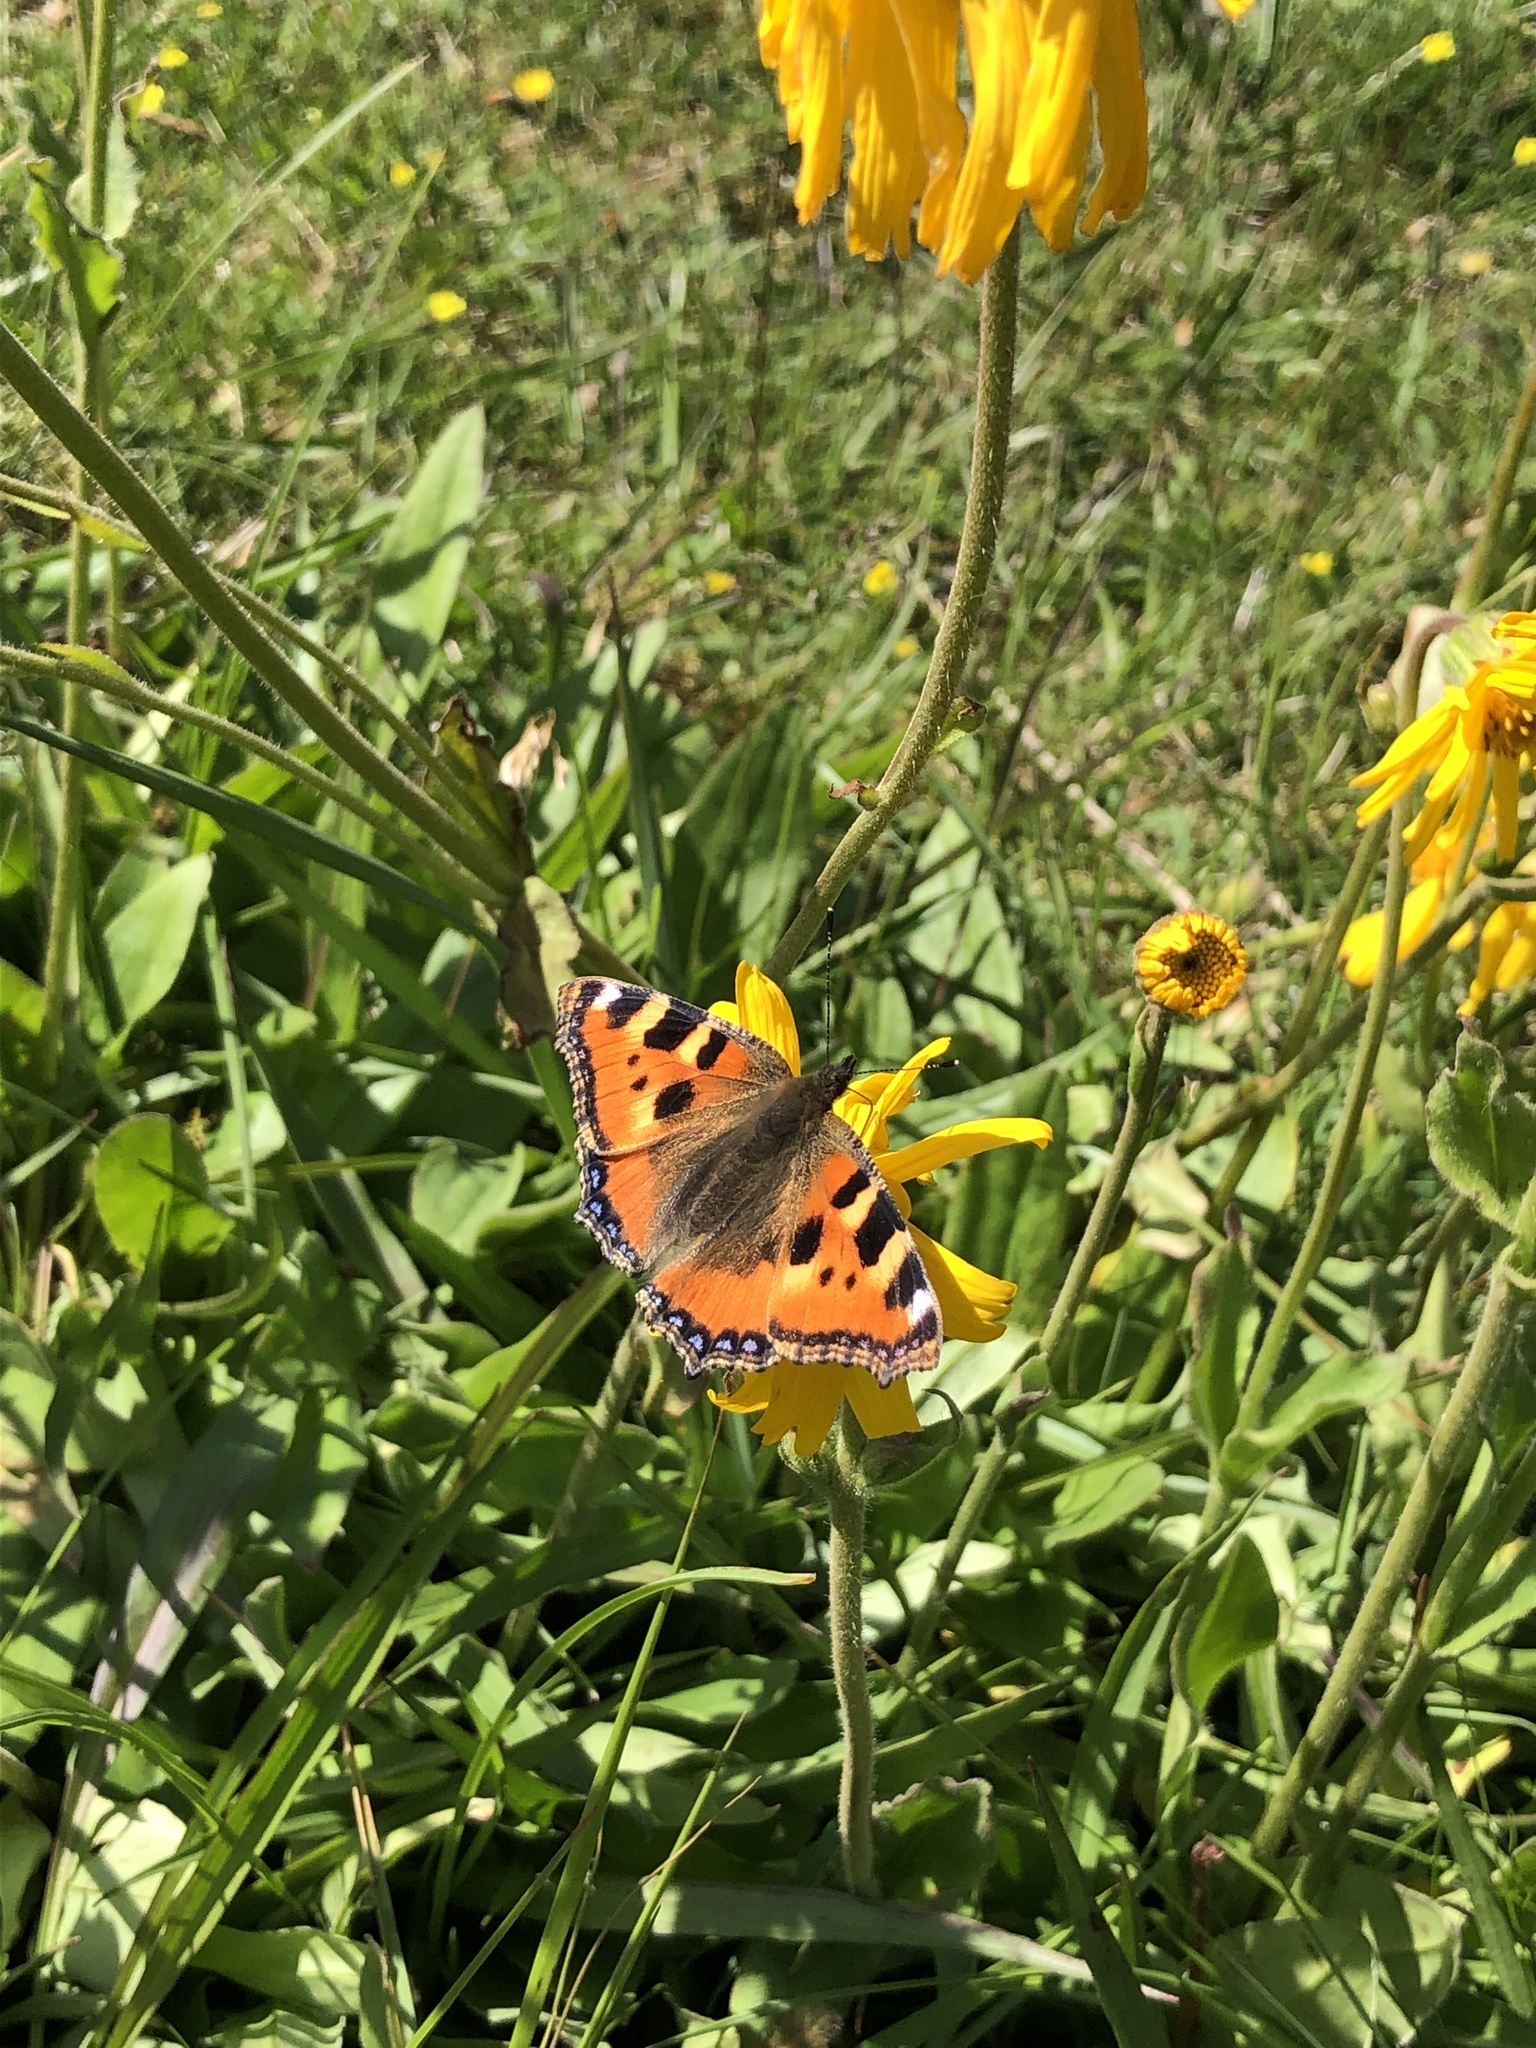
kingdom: Animalia
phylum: Arthropoda
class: Insecta
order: Lepidoptera
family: Nymphalidae
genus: Aglais
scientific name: Aglais urticae
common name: Small tortoiseshell
